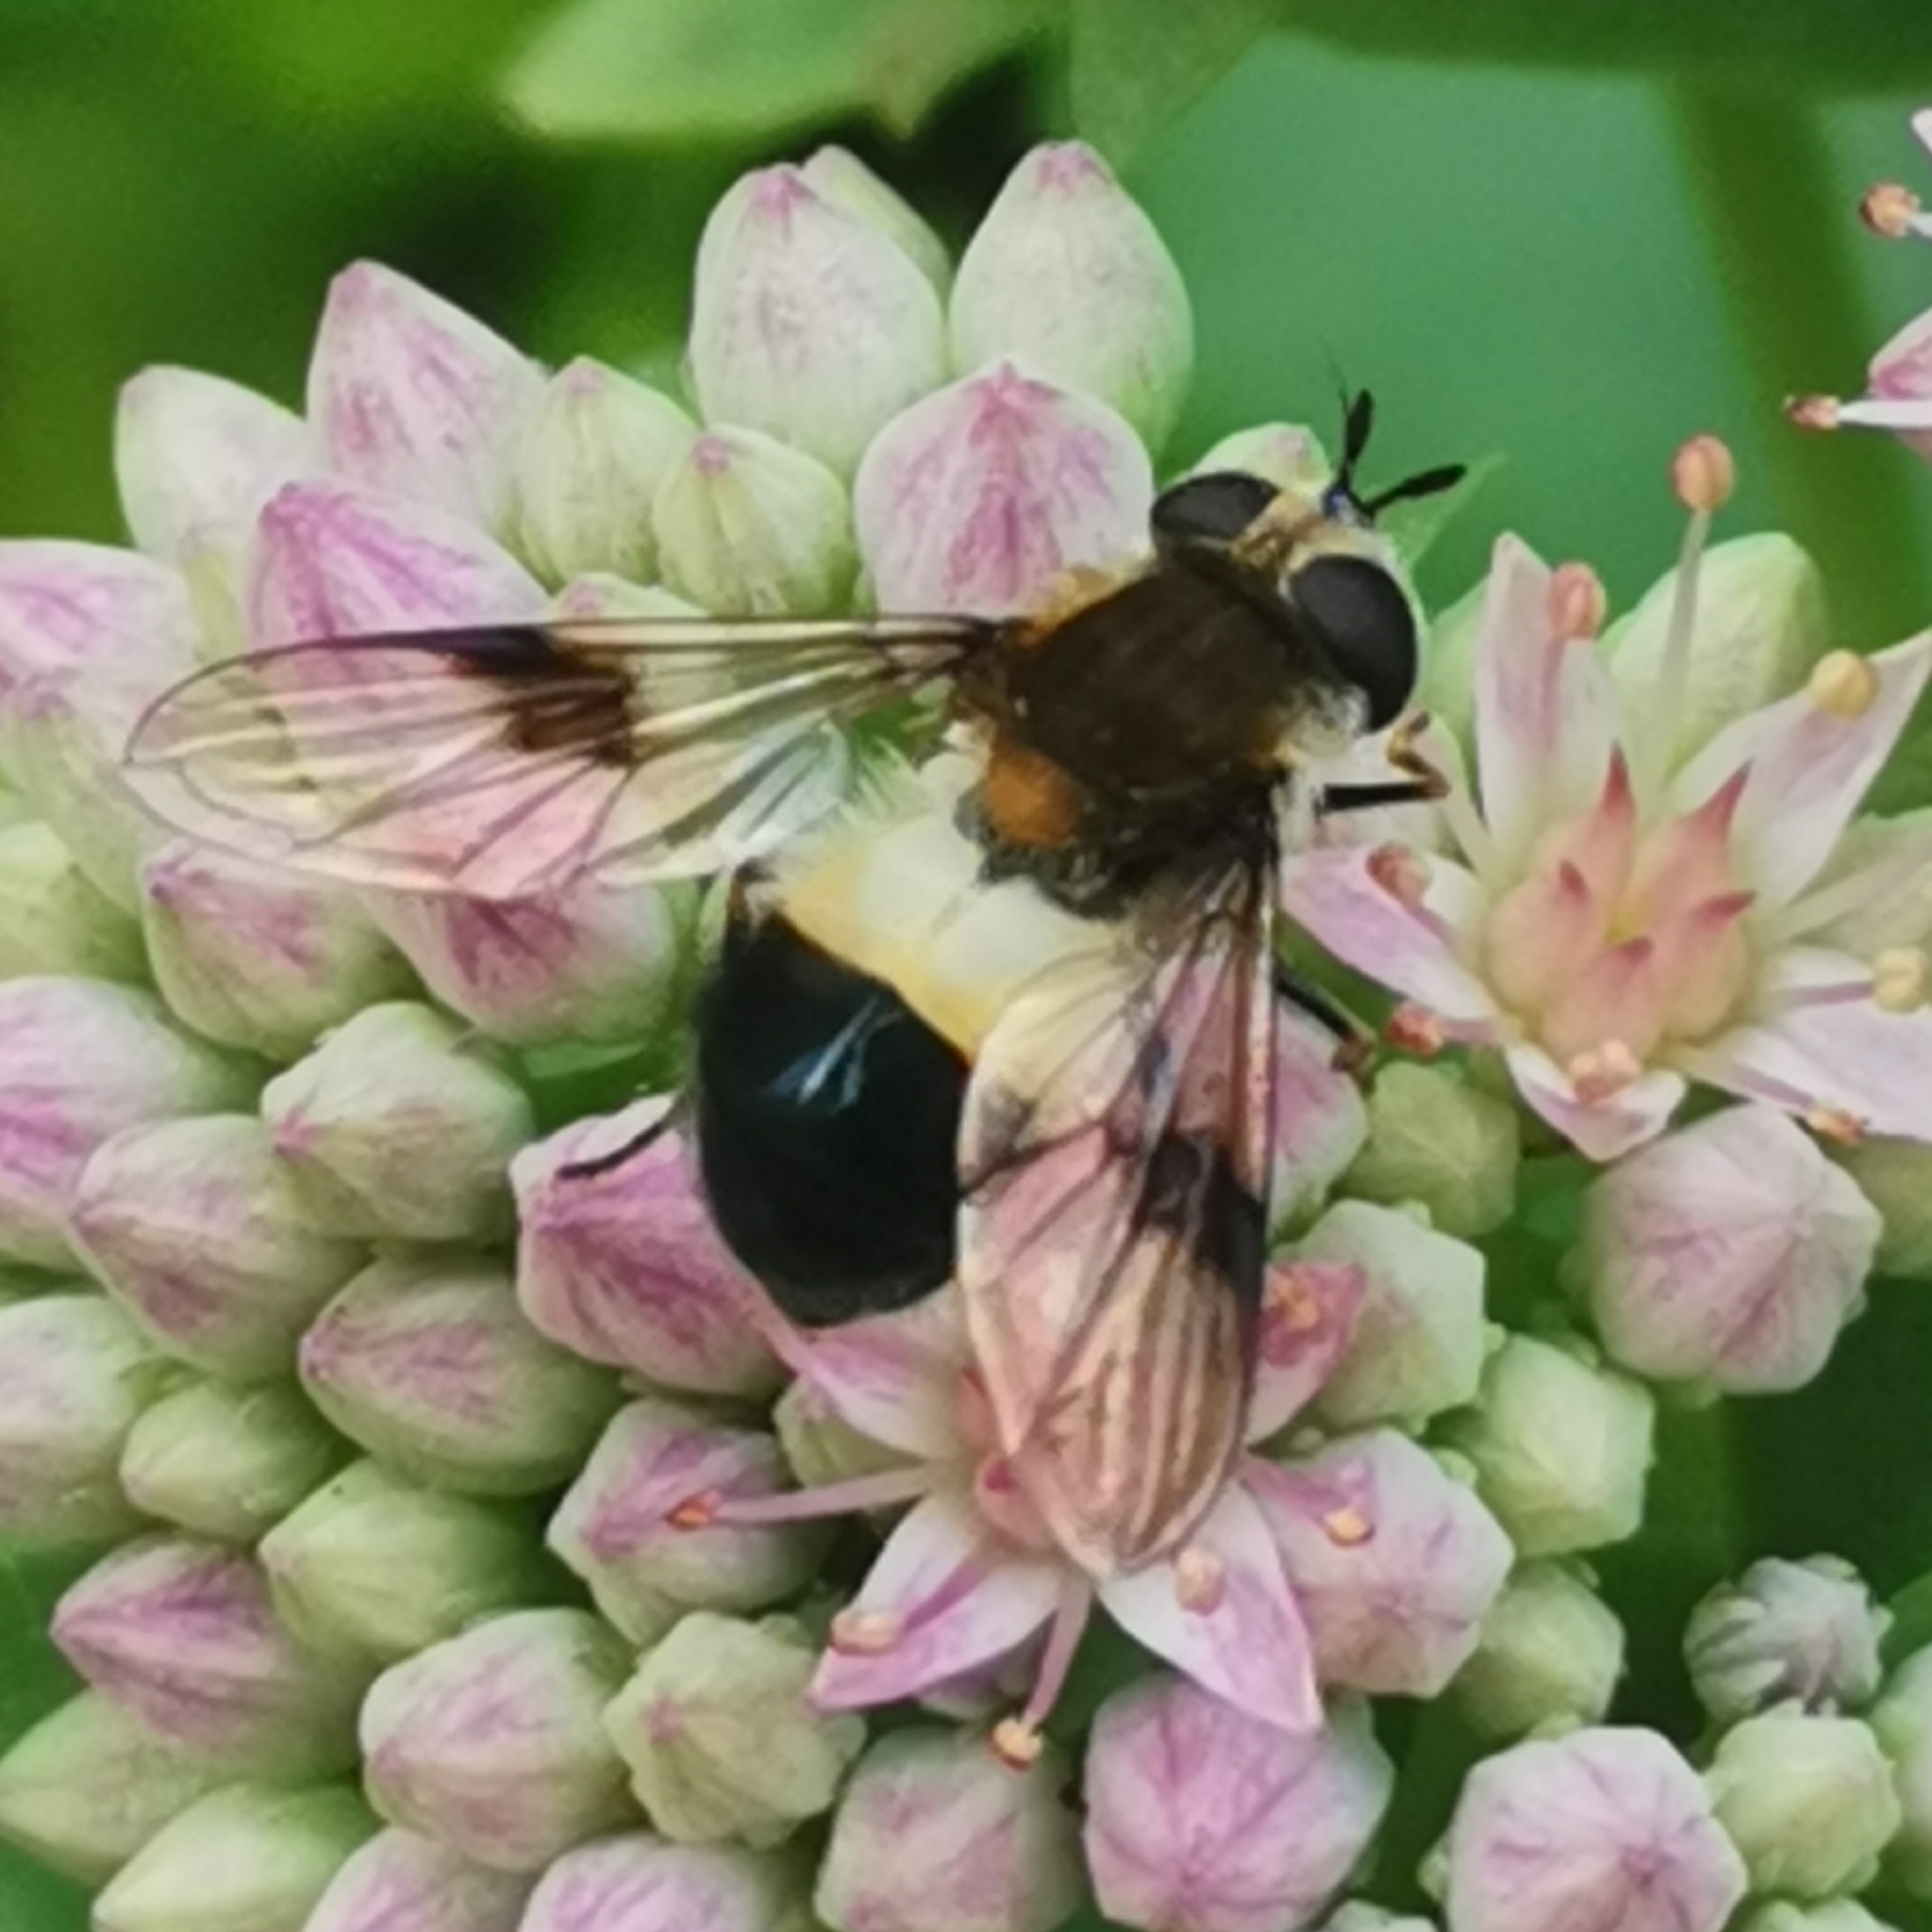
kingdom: Animalia
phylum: Arthropoda
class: Insecta
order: Diptera
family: Syrphidae
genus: Leucozona
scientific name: Leucozona lucorum
